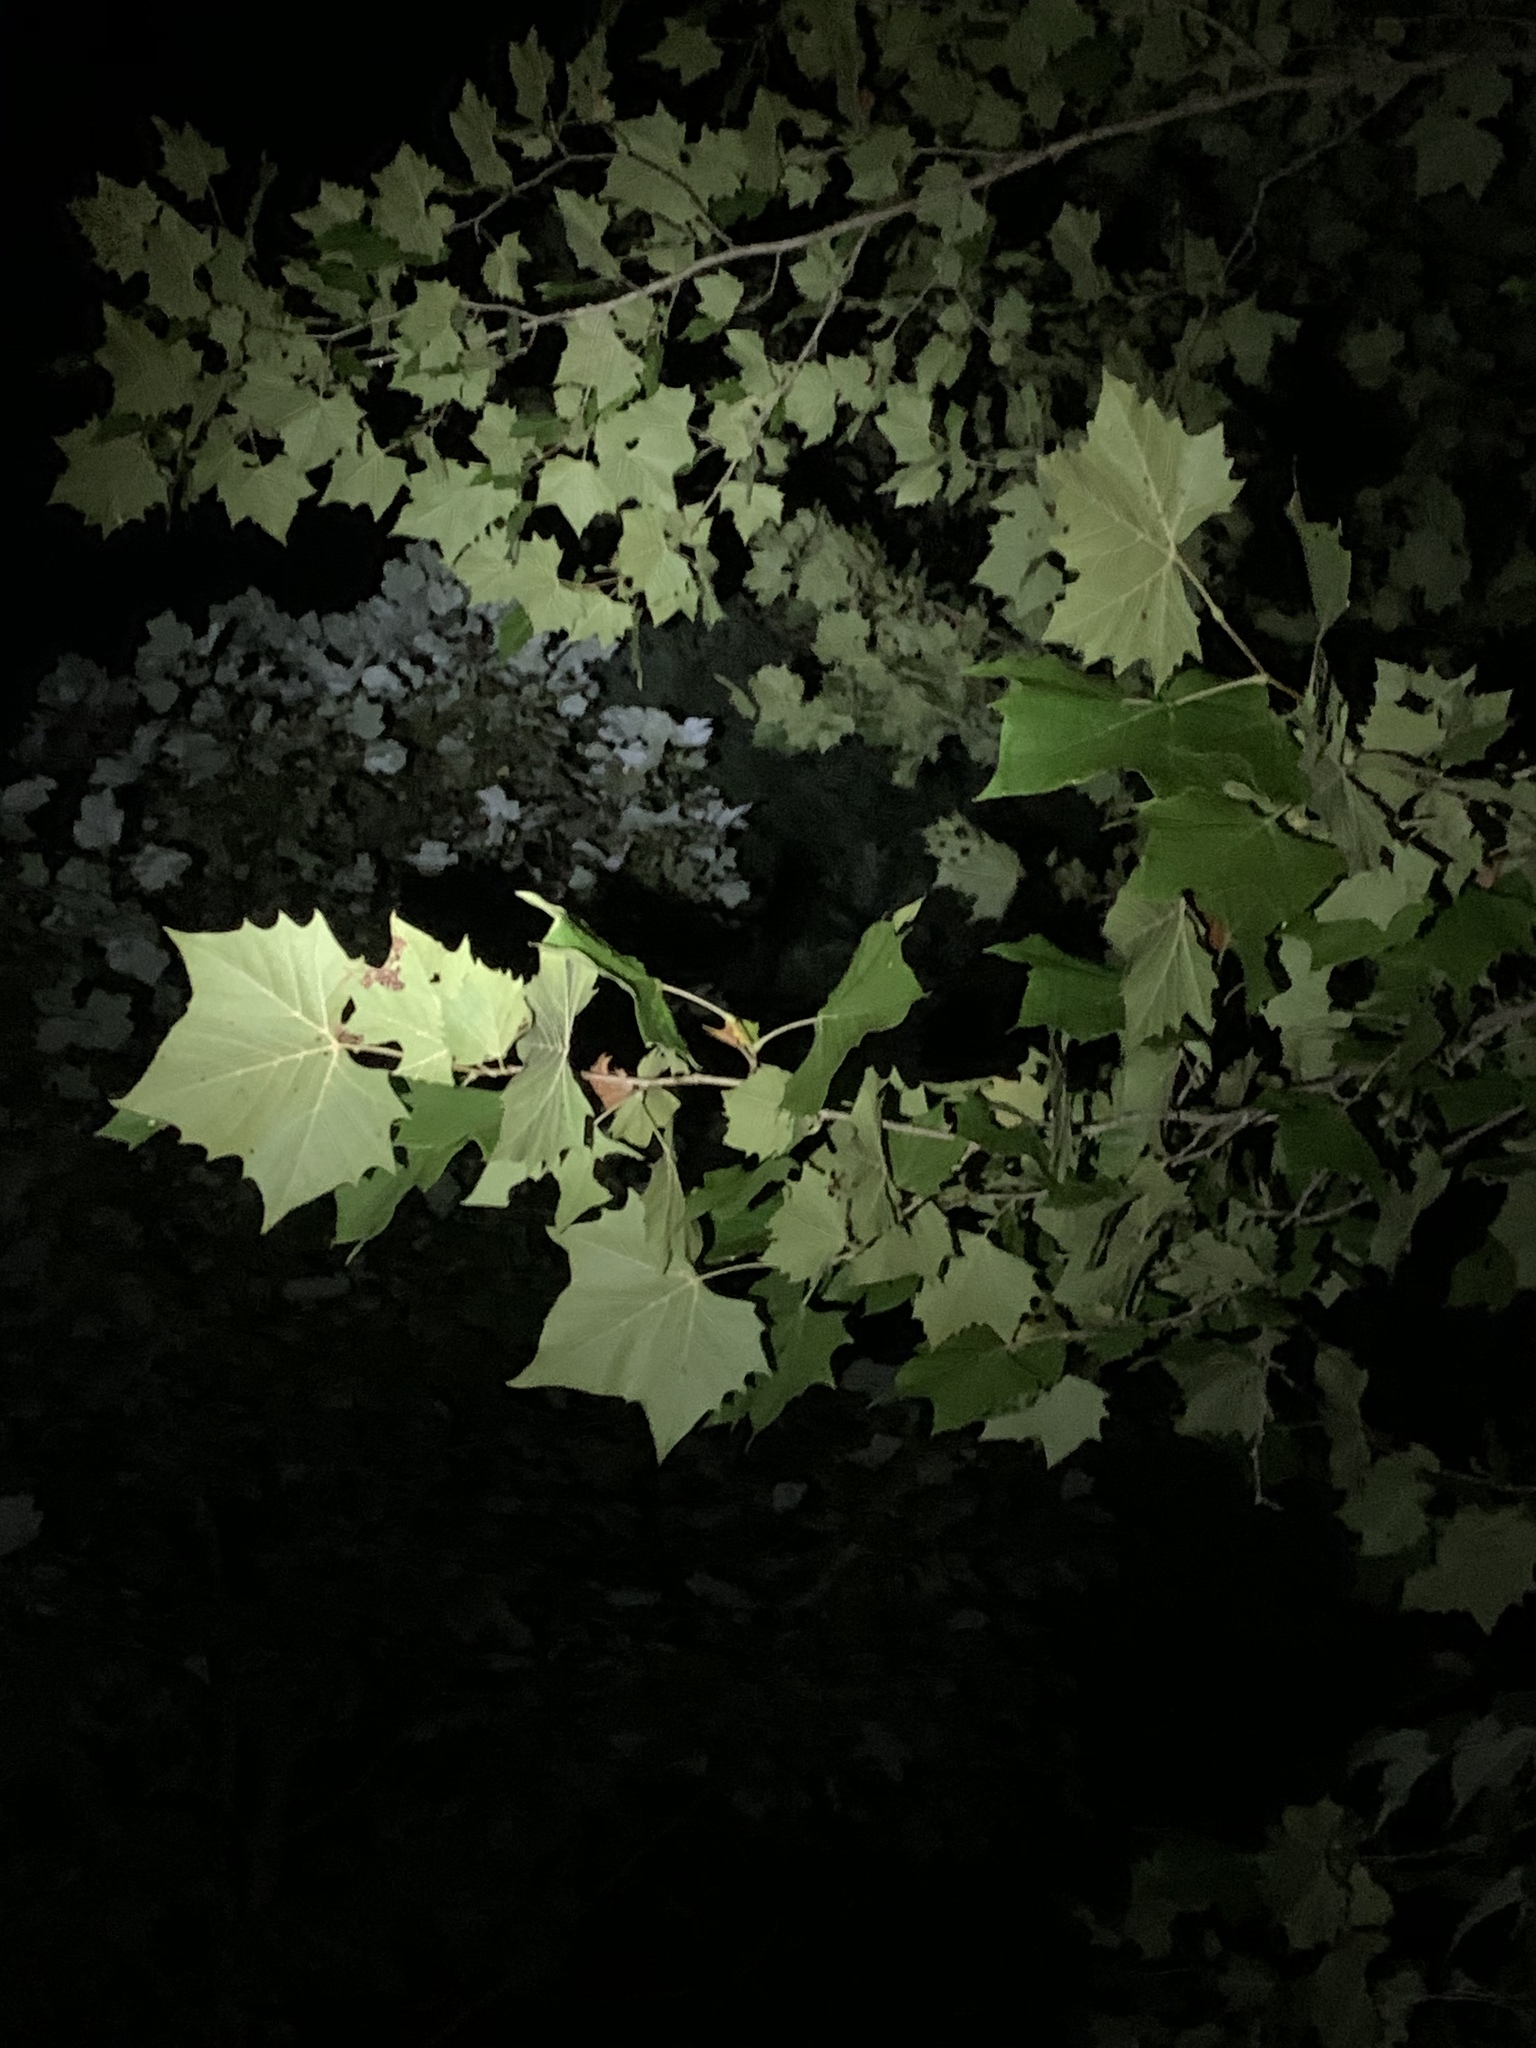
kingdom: Plantae
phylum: Tracheophyta
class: Magnoliopsida
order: Proteales
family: Platanaceae
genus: Platanus
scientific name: Platanus occidentalis
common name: American sycamore
